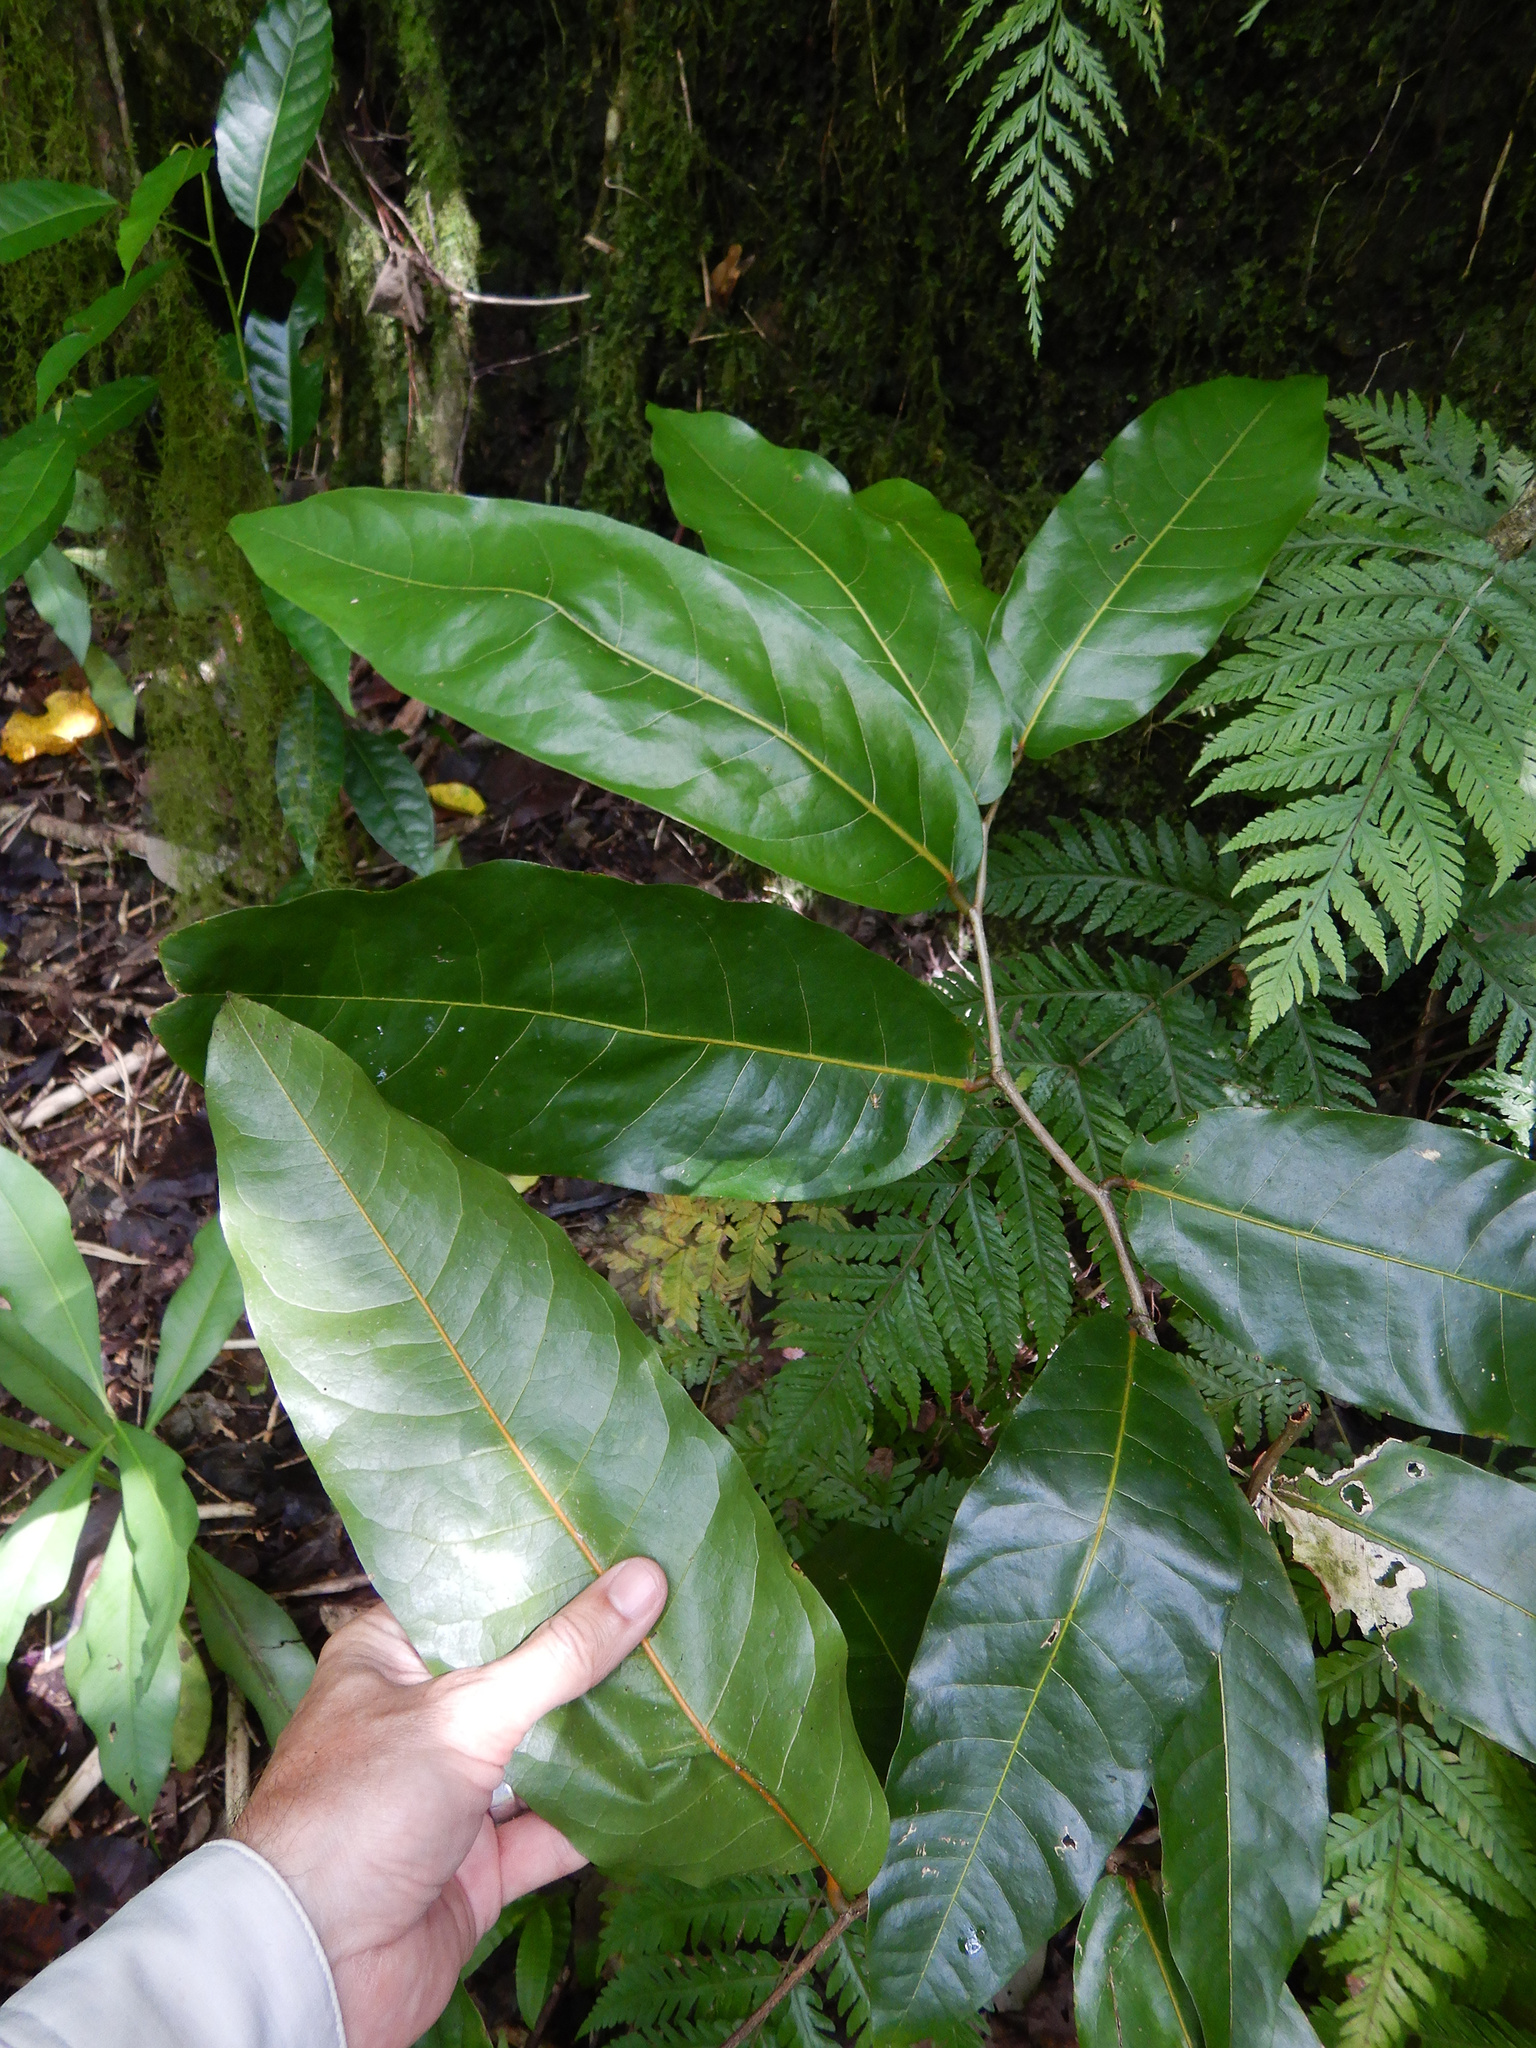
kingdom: Plantae
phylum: Tracheophyta
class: Magnoliopsida
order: Fabales
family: Fabaceae
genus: Inocarpus
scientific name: Inocarpus fagifer
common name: Polynesian chestnut
